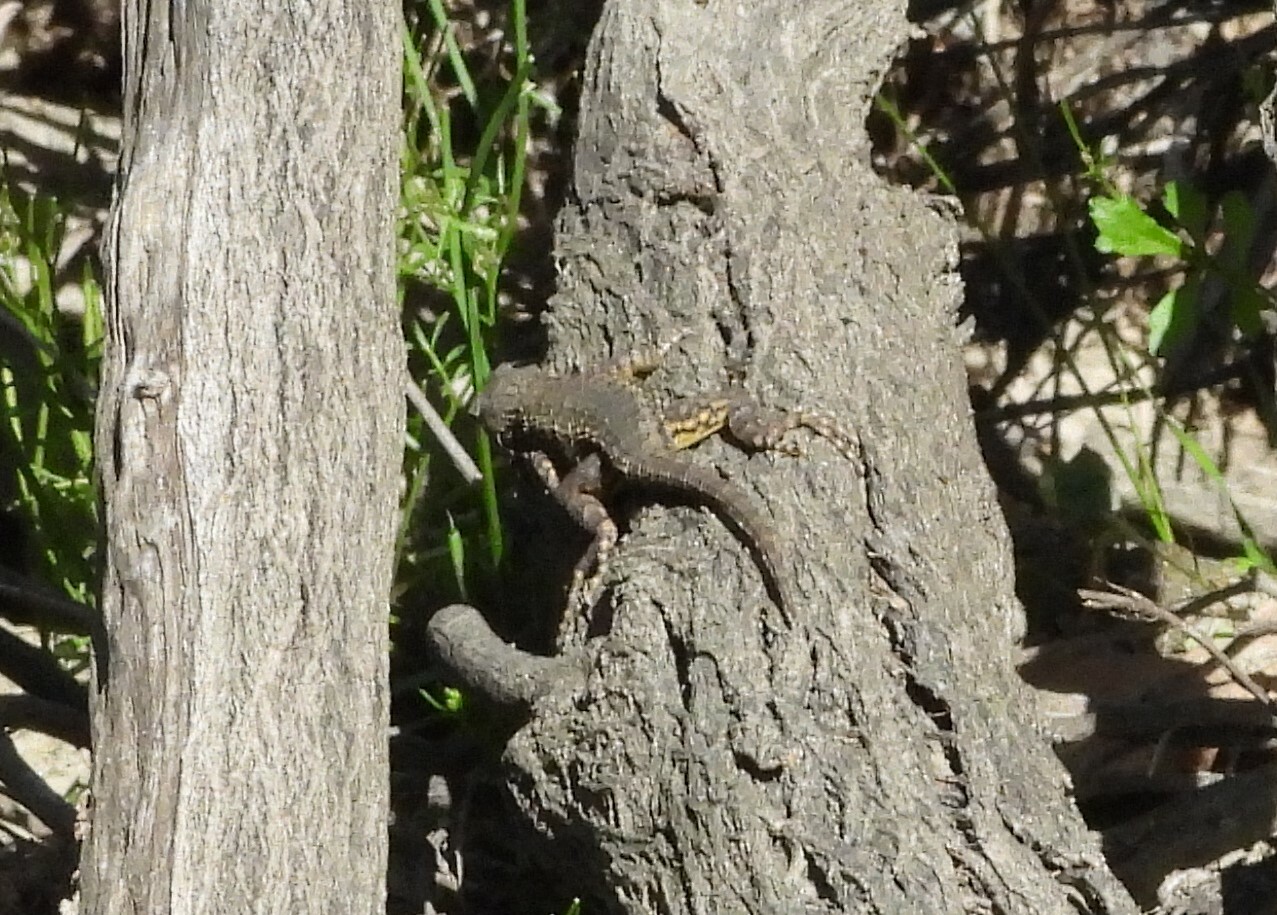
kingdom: Animalia
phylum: Chordata
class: Squamata
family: Phrynosomatidae
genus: Sceloporus
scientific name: Sceloporus occidentalis
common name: Western fence lizard
